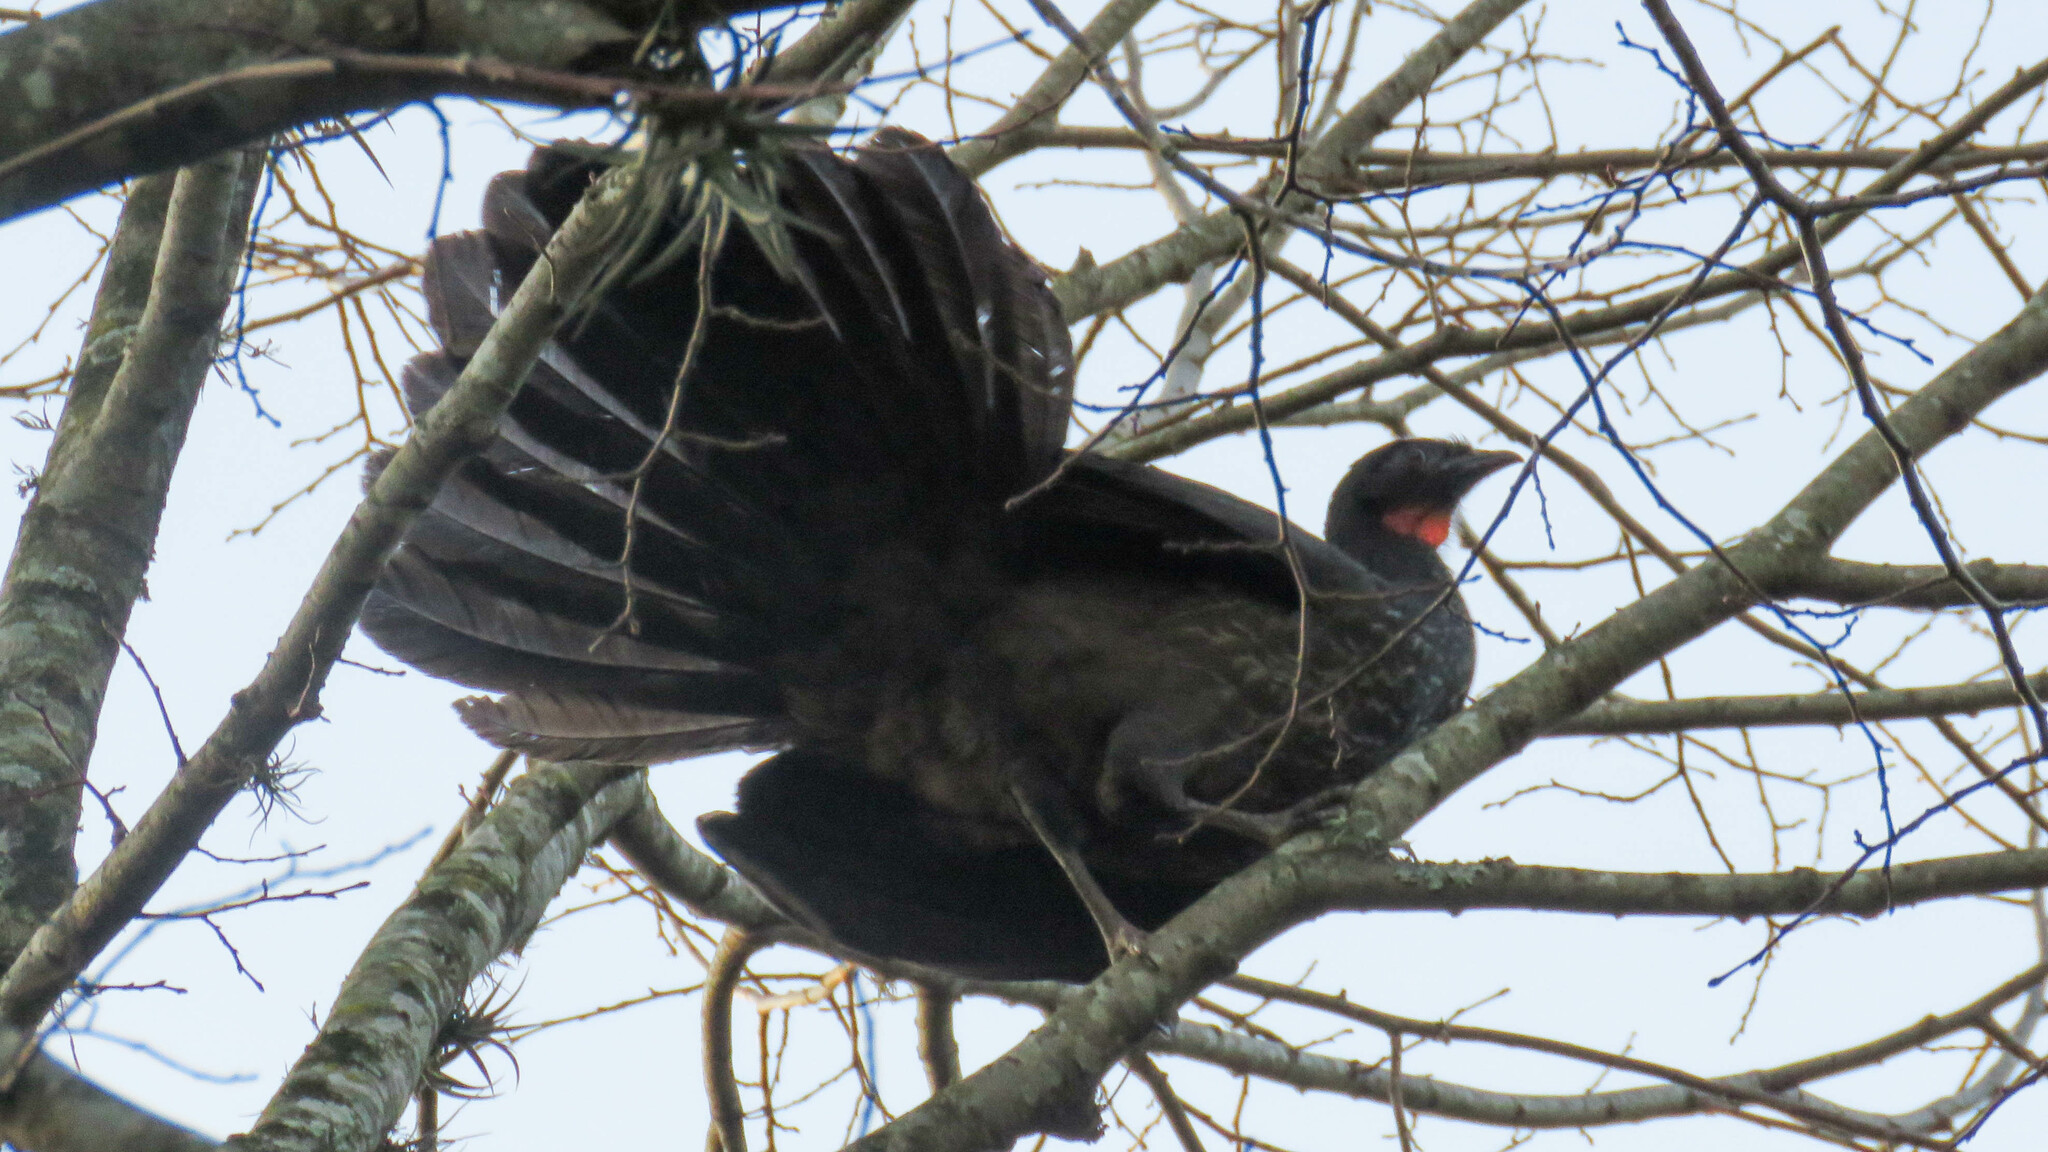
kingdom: Animalia
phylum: Chordata
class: Aves
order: Galliformes
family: Cracidae
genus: Penelope
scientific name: Penelope obscura
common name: Dusky-legged guan
